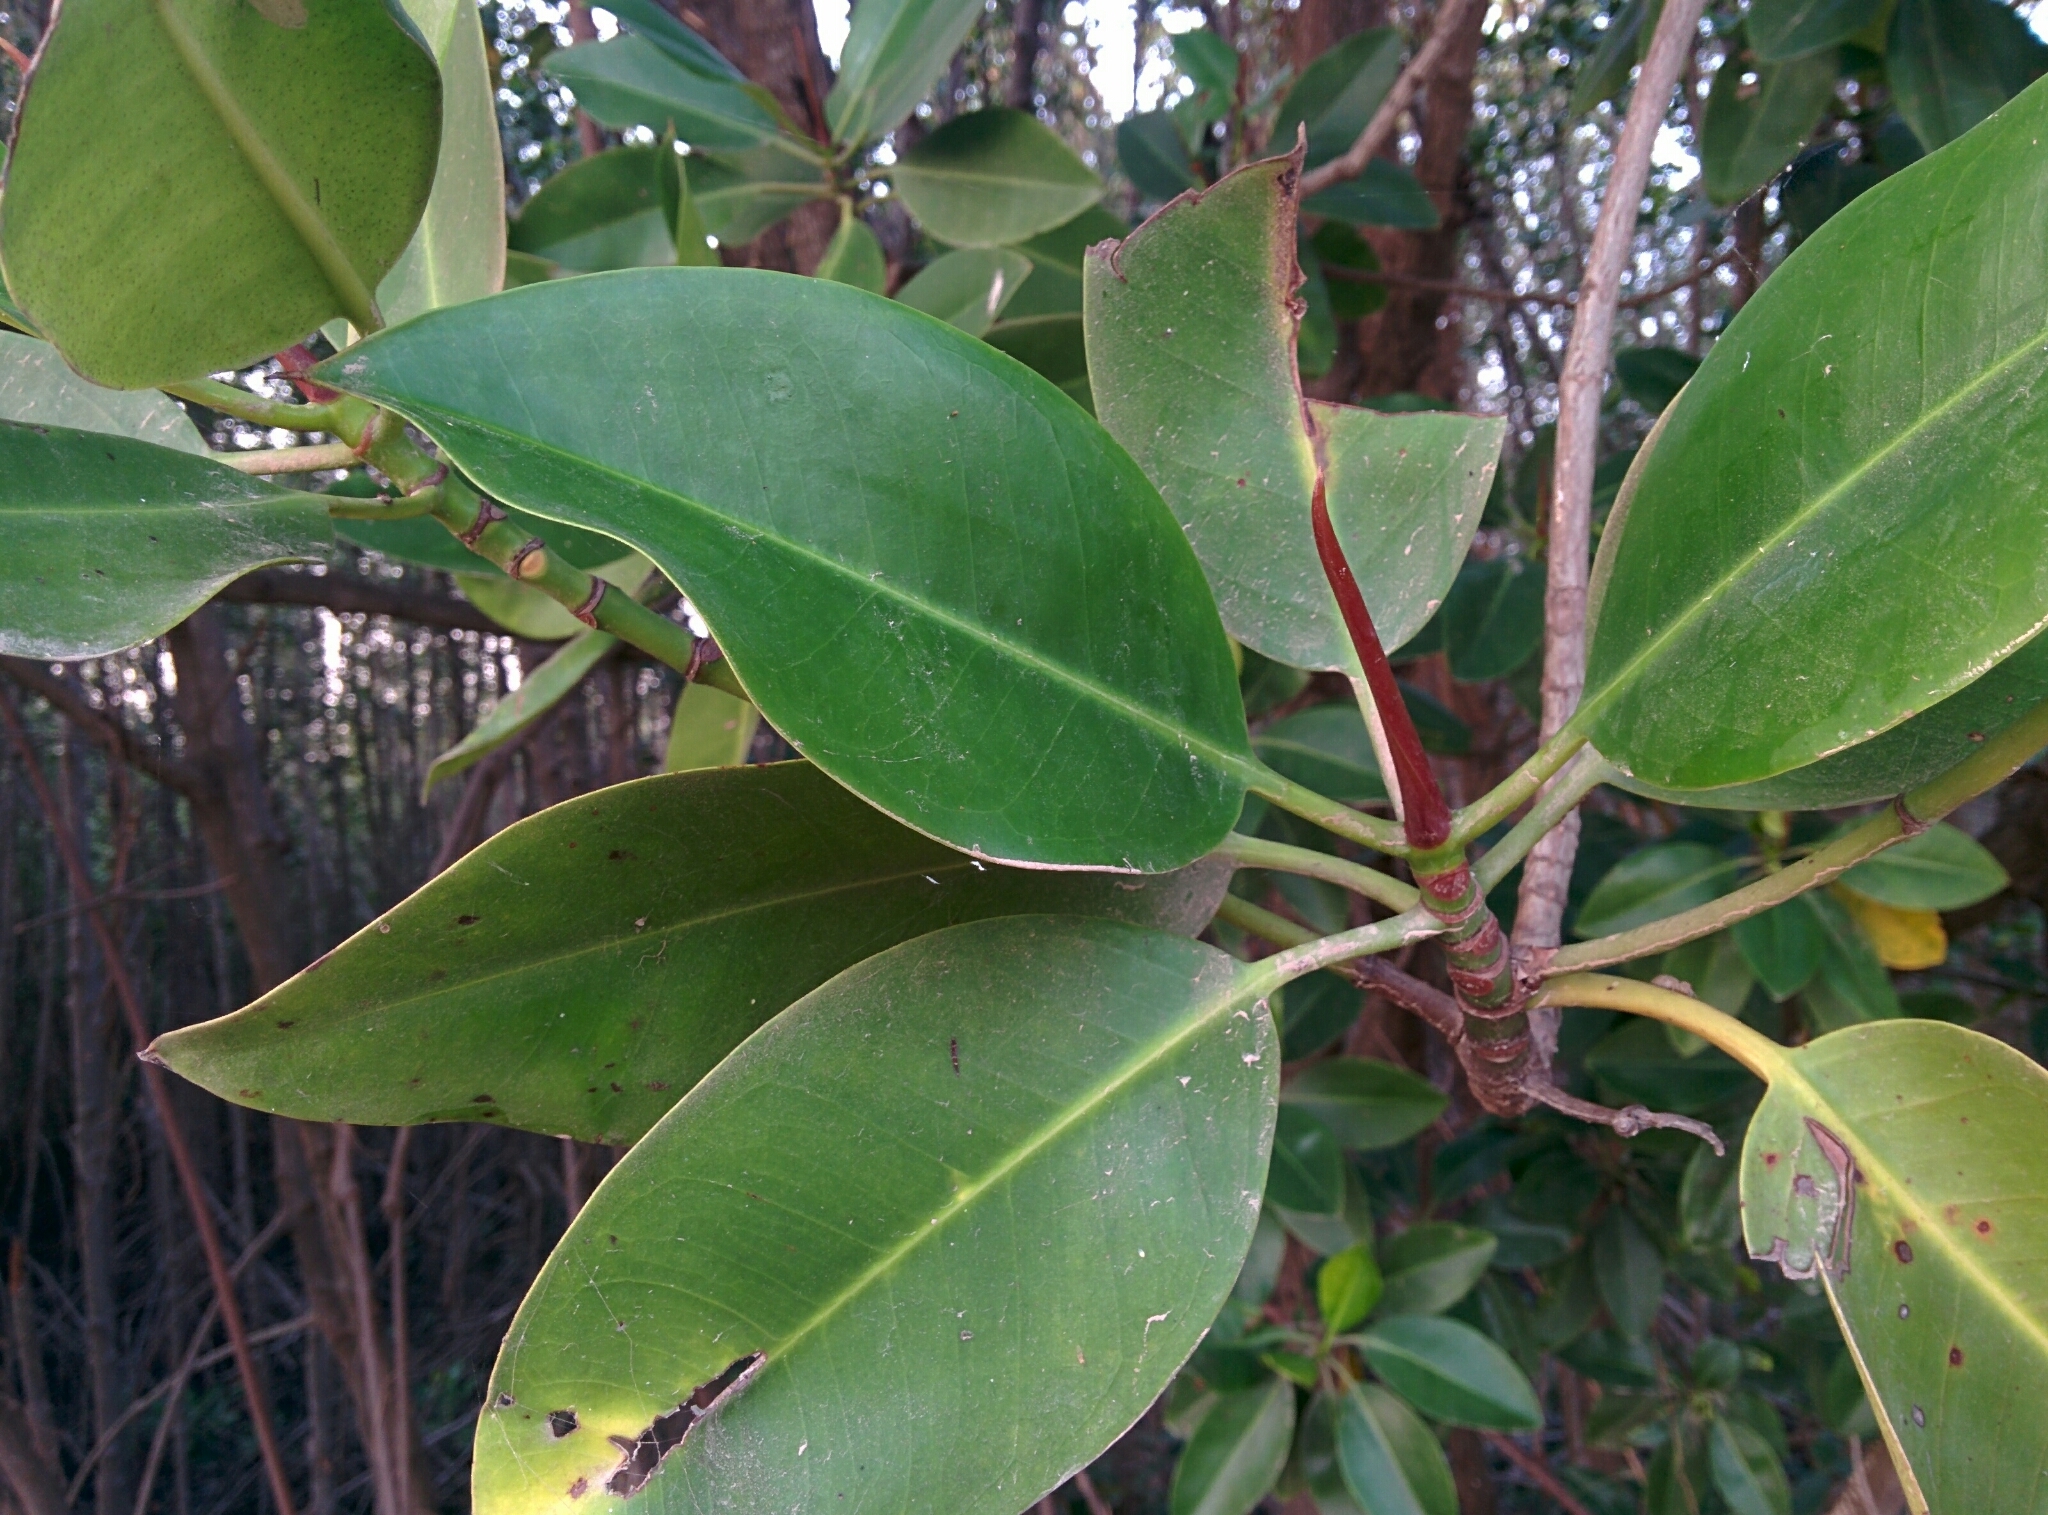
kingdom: Plantae
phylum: Tracheophyta
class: Magnoliopsida
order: Malpighiales
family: Rhizophoraceae
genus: Rhizophora
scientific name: Rhizophora apiculata
